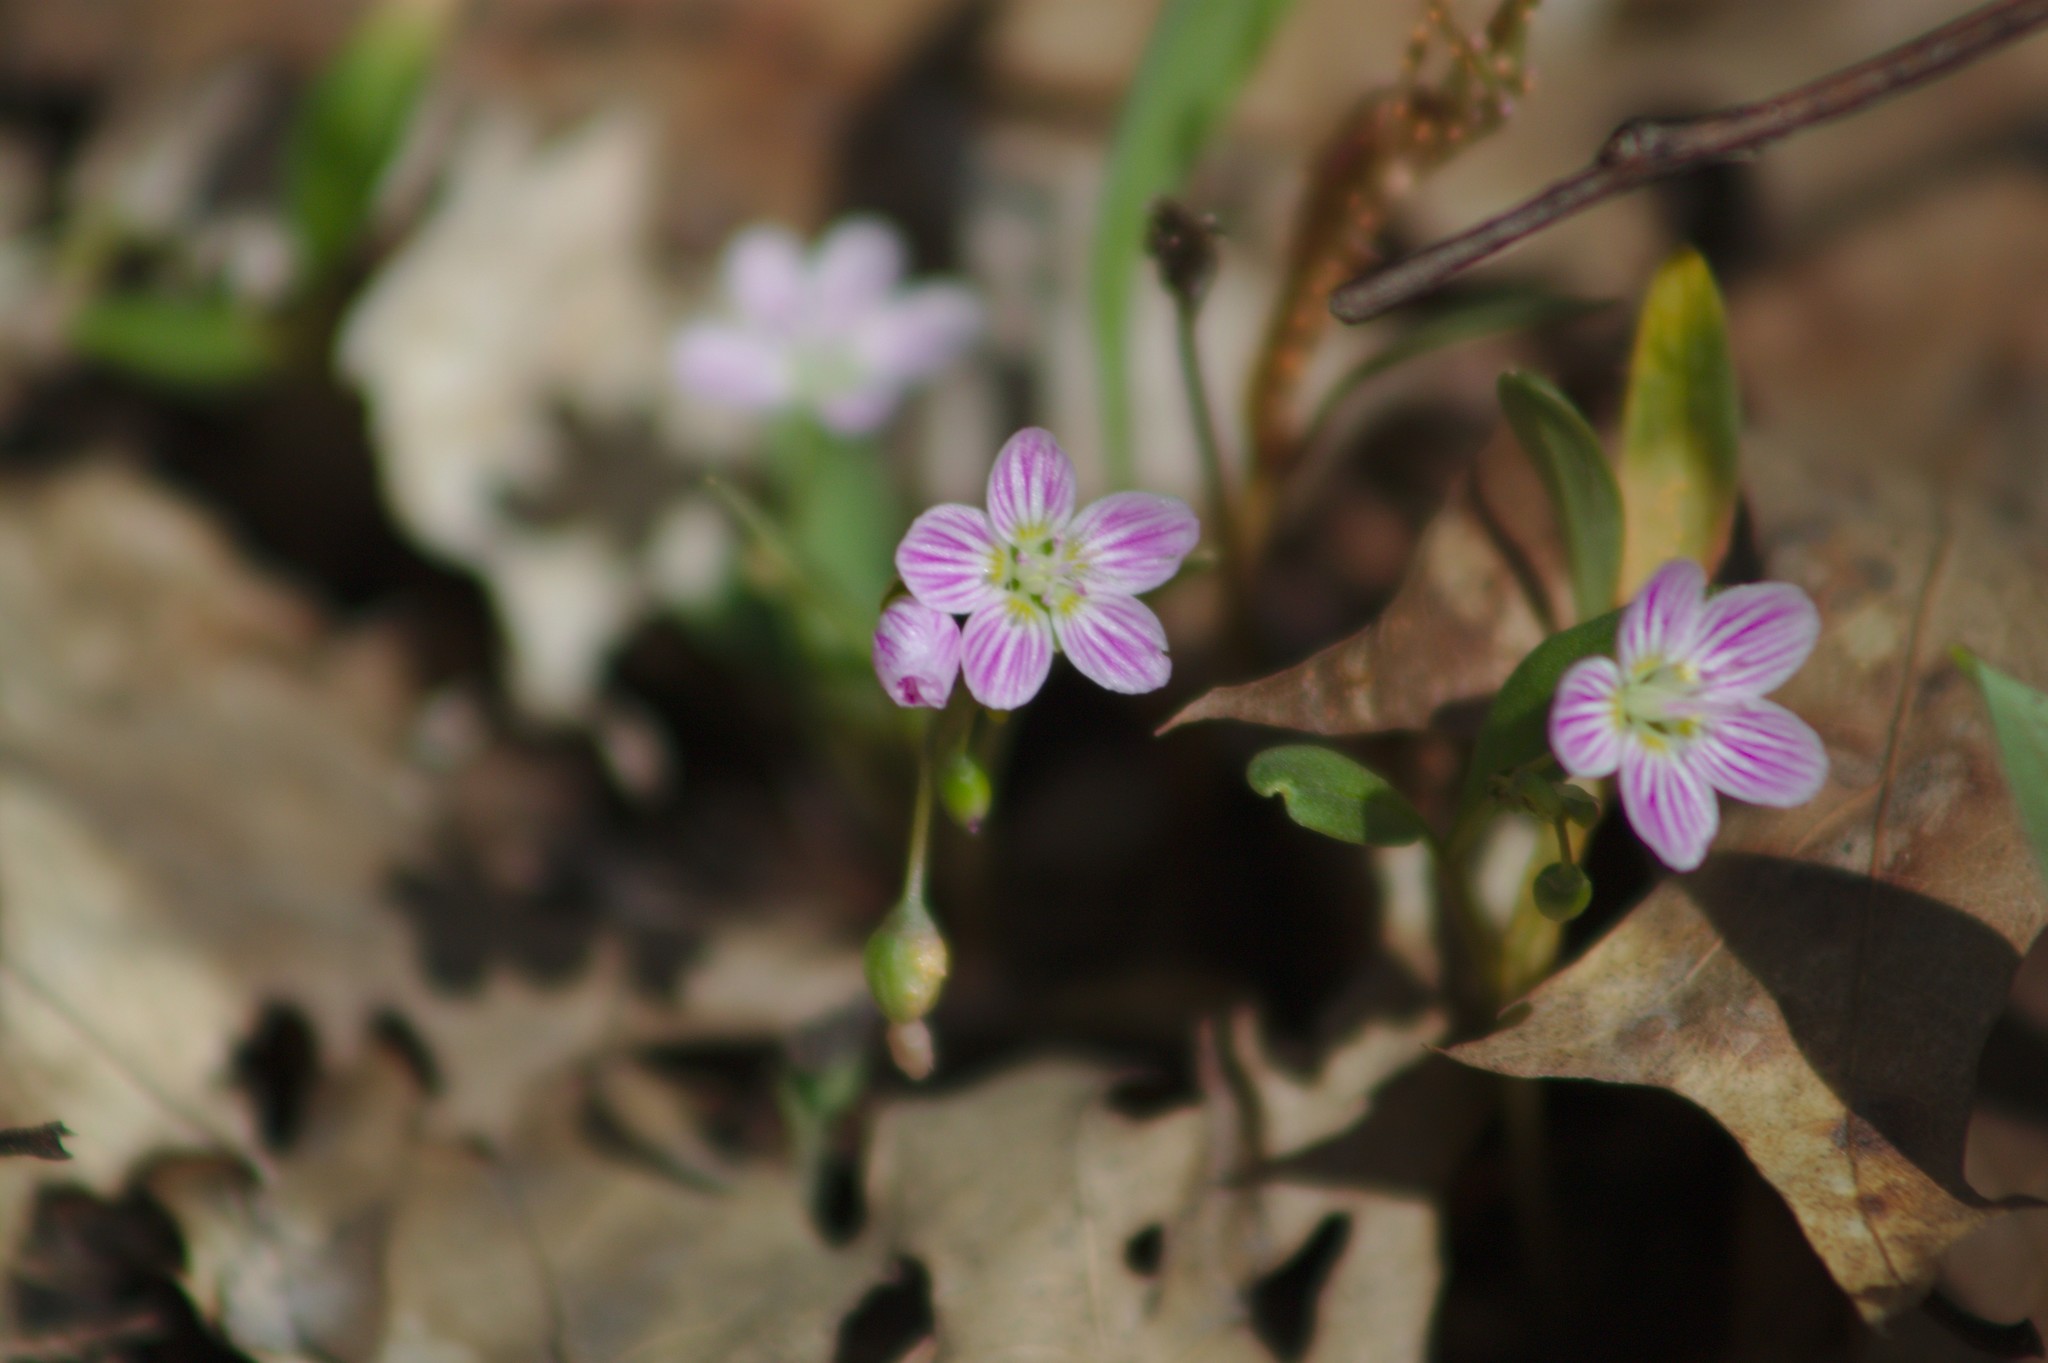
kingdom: Plantae
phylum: Tracheophyta
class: Magnoliopsida
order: Caryophyllales
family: Montiaceae
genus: Claytonia
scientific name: Claytonia caroliniana
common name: Carolina spring beauty
